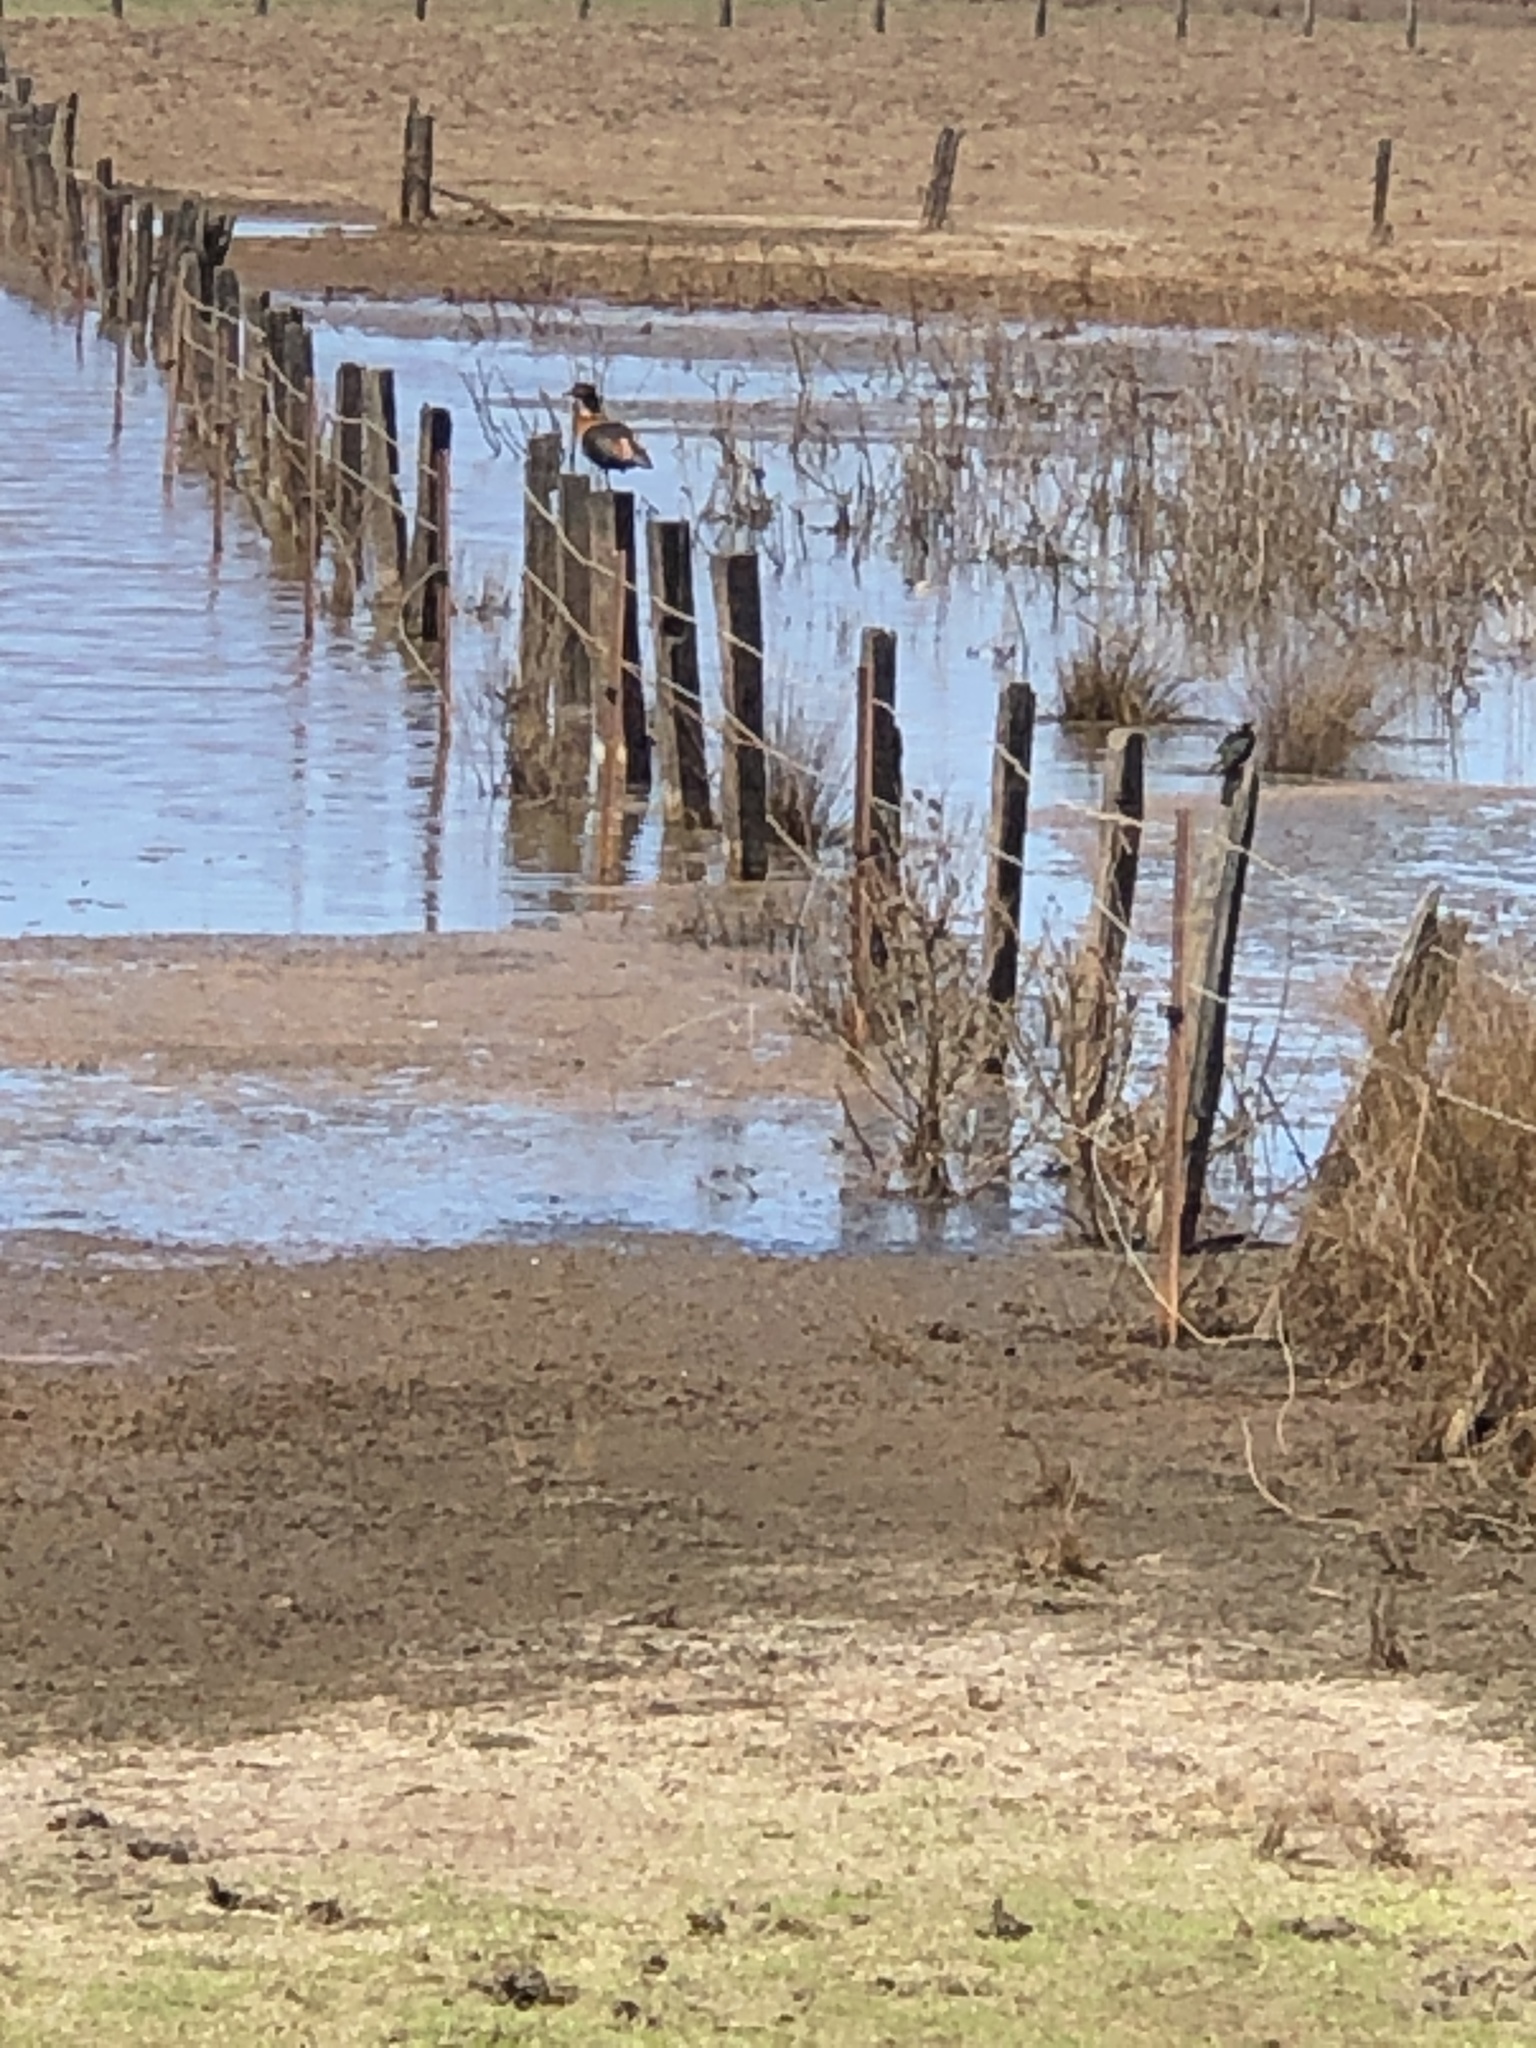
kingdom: Animalia
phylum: Chordata
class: Aves
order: Anseriformes
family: Anatidae
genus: Tadorna
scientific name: Tadorna tadornoides
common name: Australian shelduck
